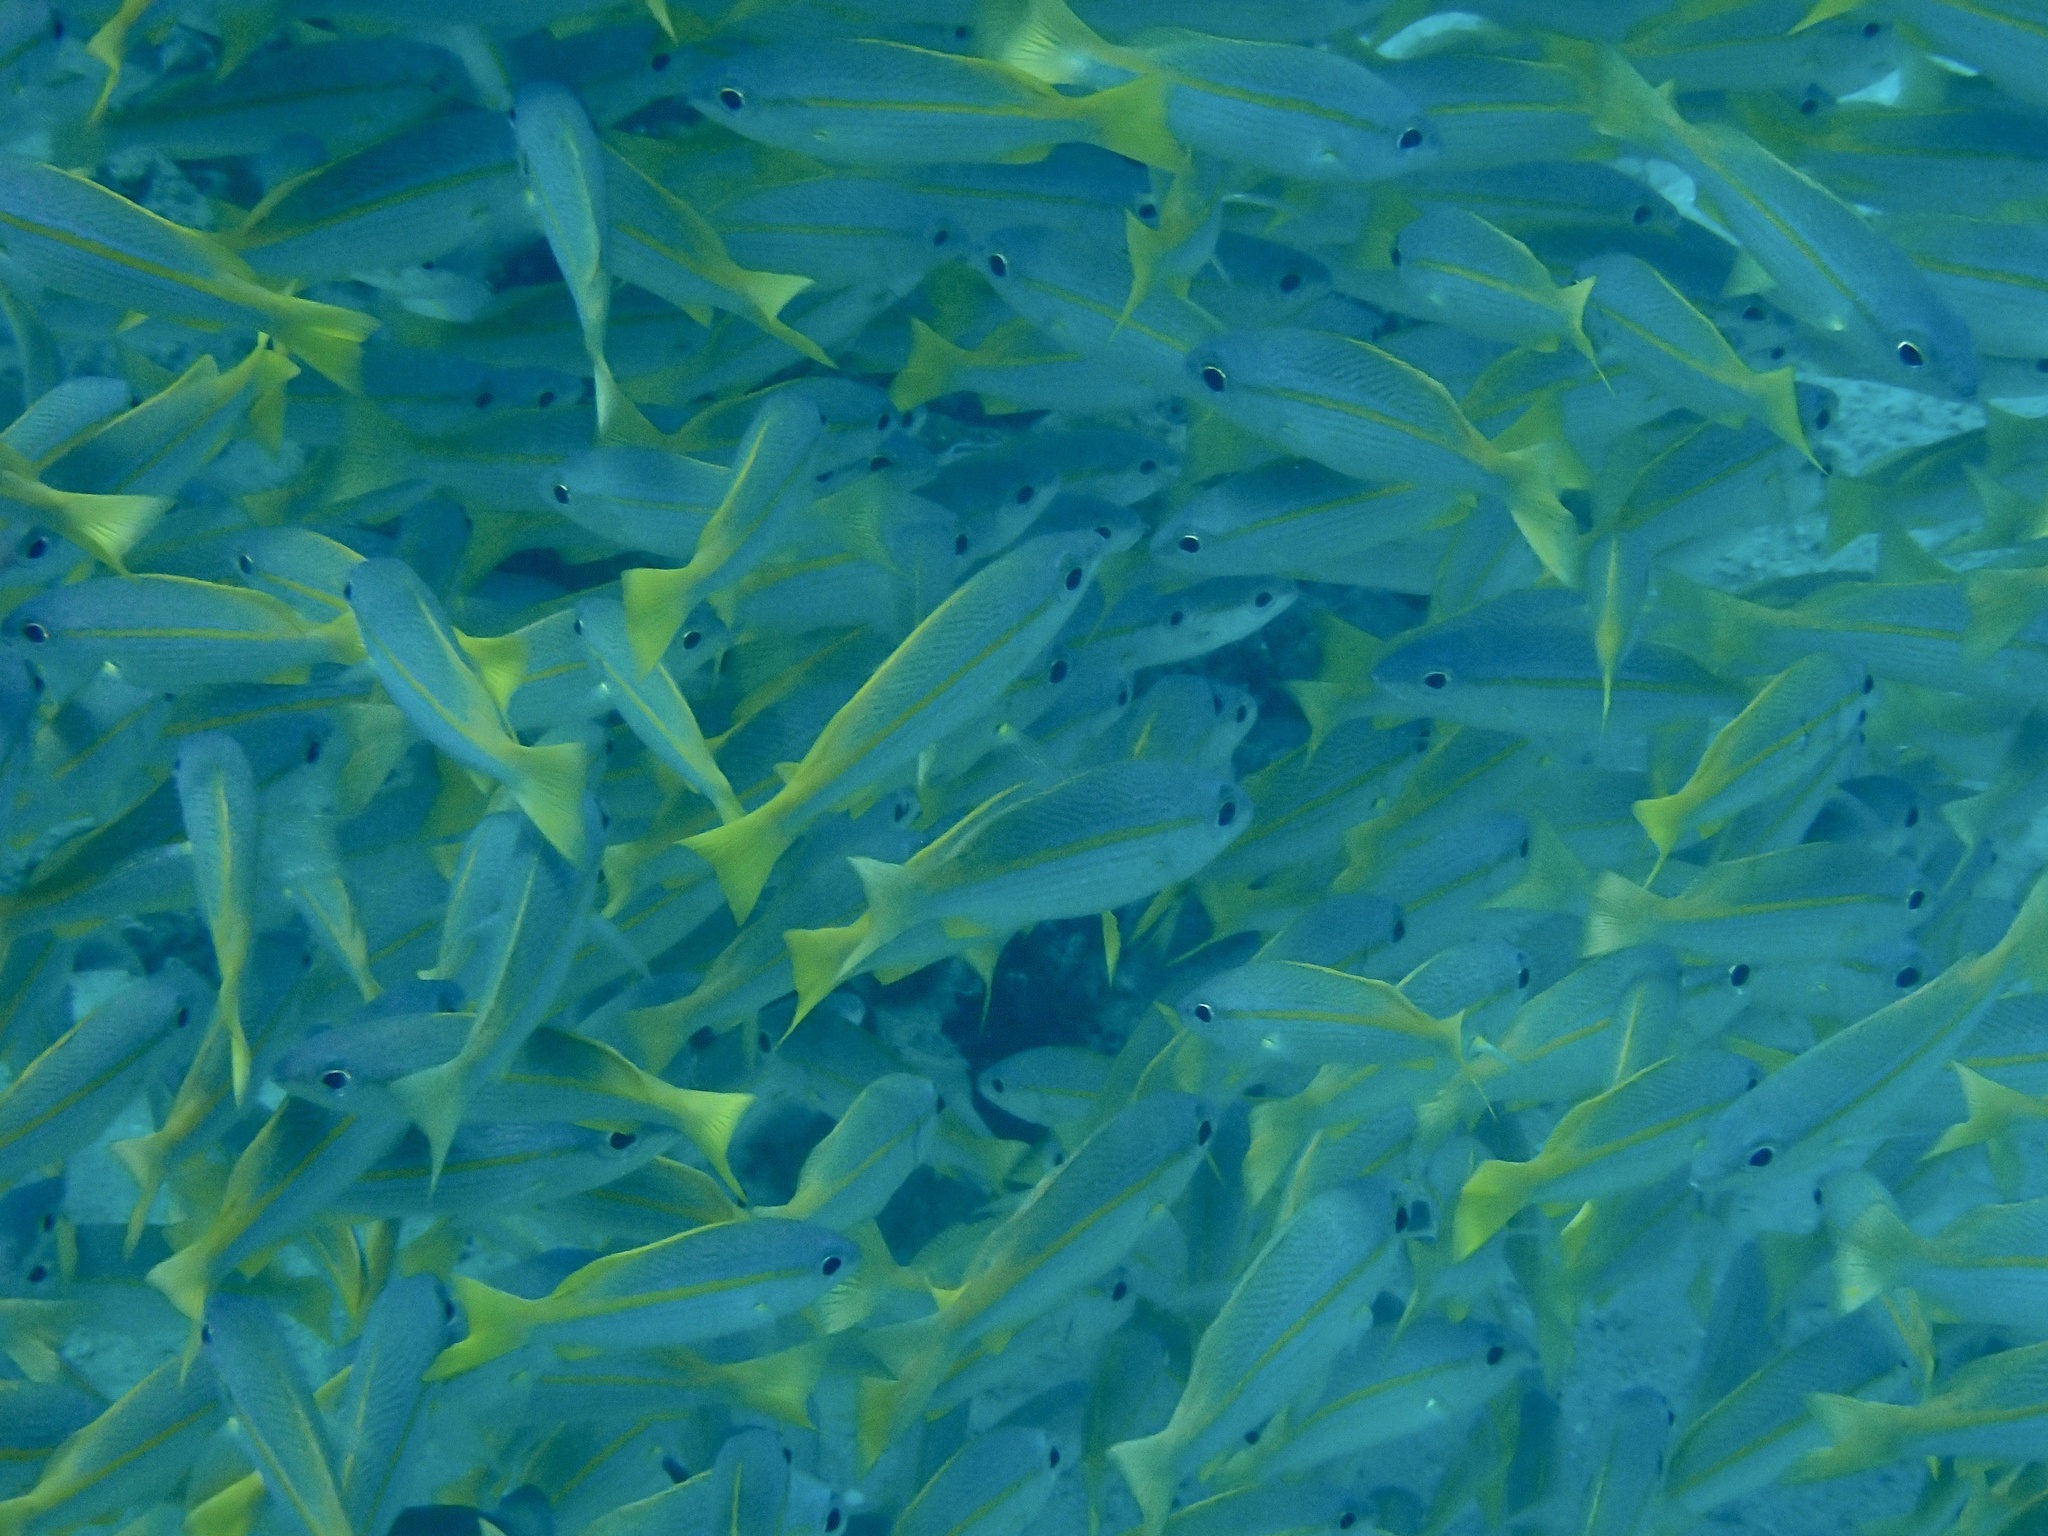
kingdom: Animalia
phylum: Chordata
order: Perciformes
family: Lutjanidae
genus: Lutjanus
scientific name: Lutjanus lutjanus
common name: Bigeye snapper
